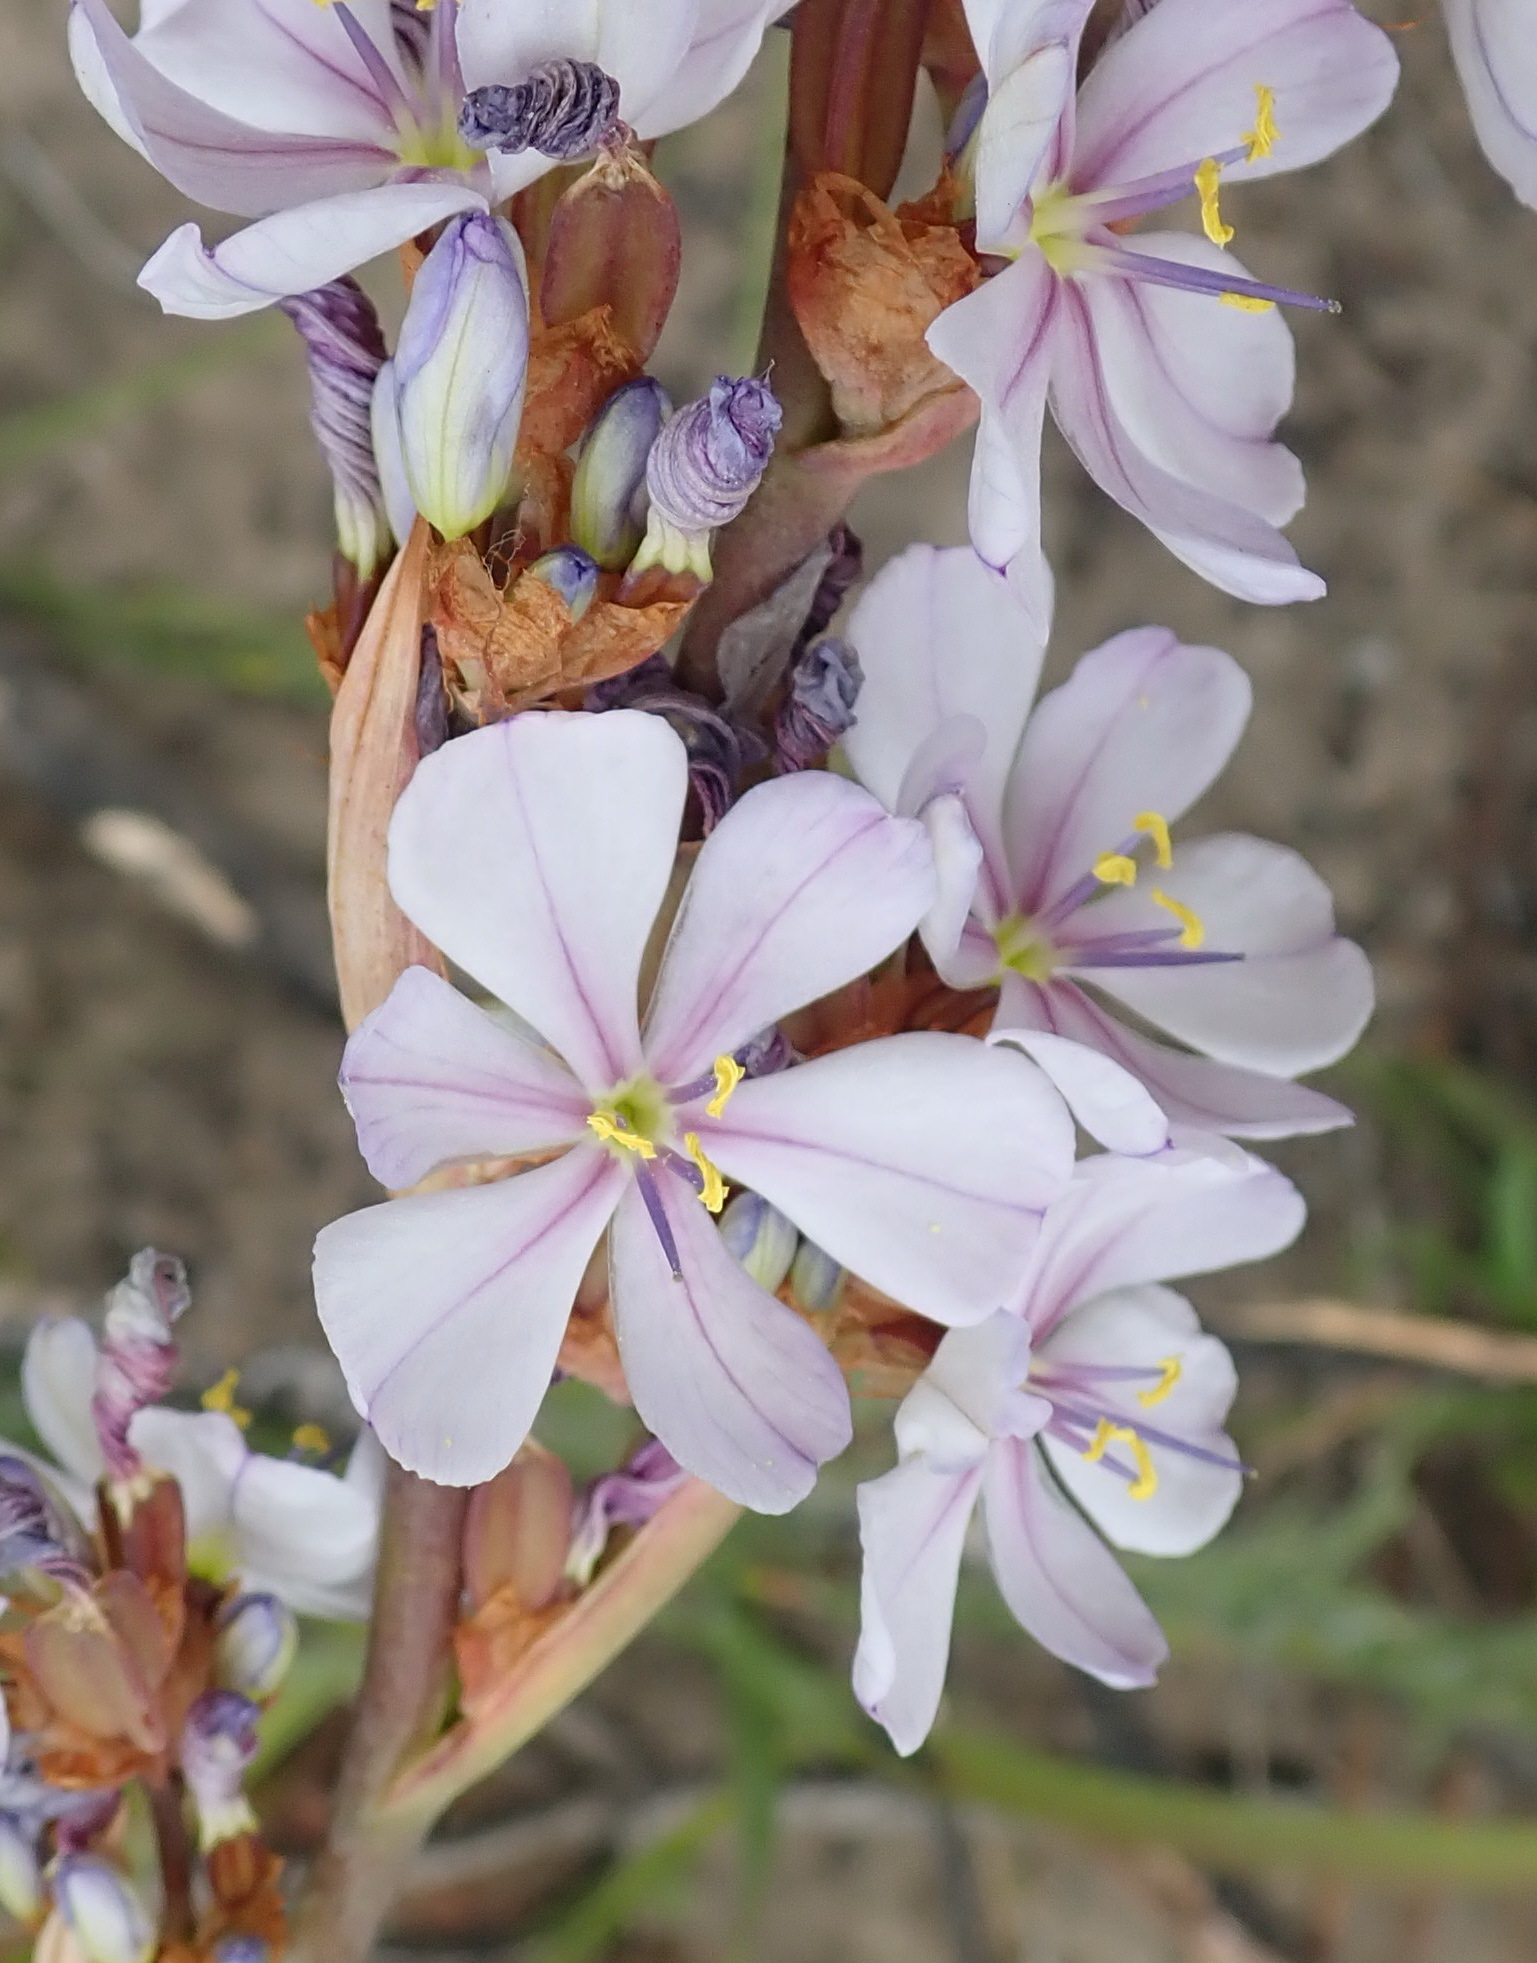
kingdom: Plantae
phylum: Tracheophyta
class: Liliopsida
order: Asparagales
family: Iridaceae
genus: Aristea
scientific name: Aristea bakeri
